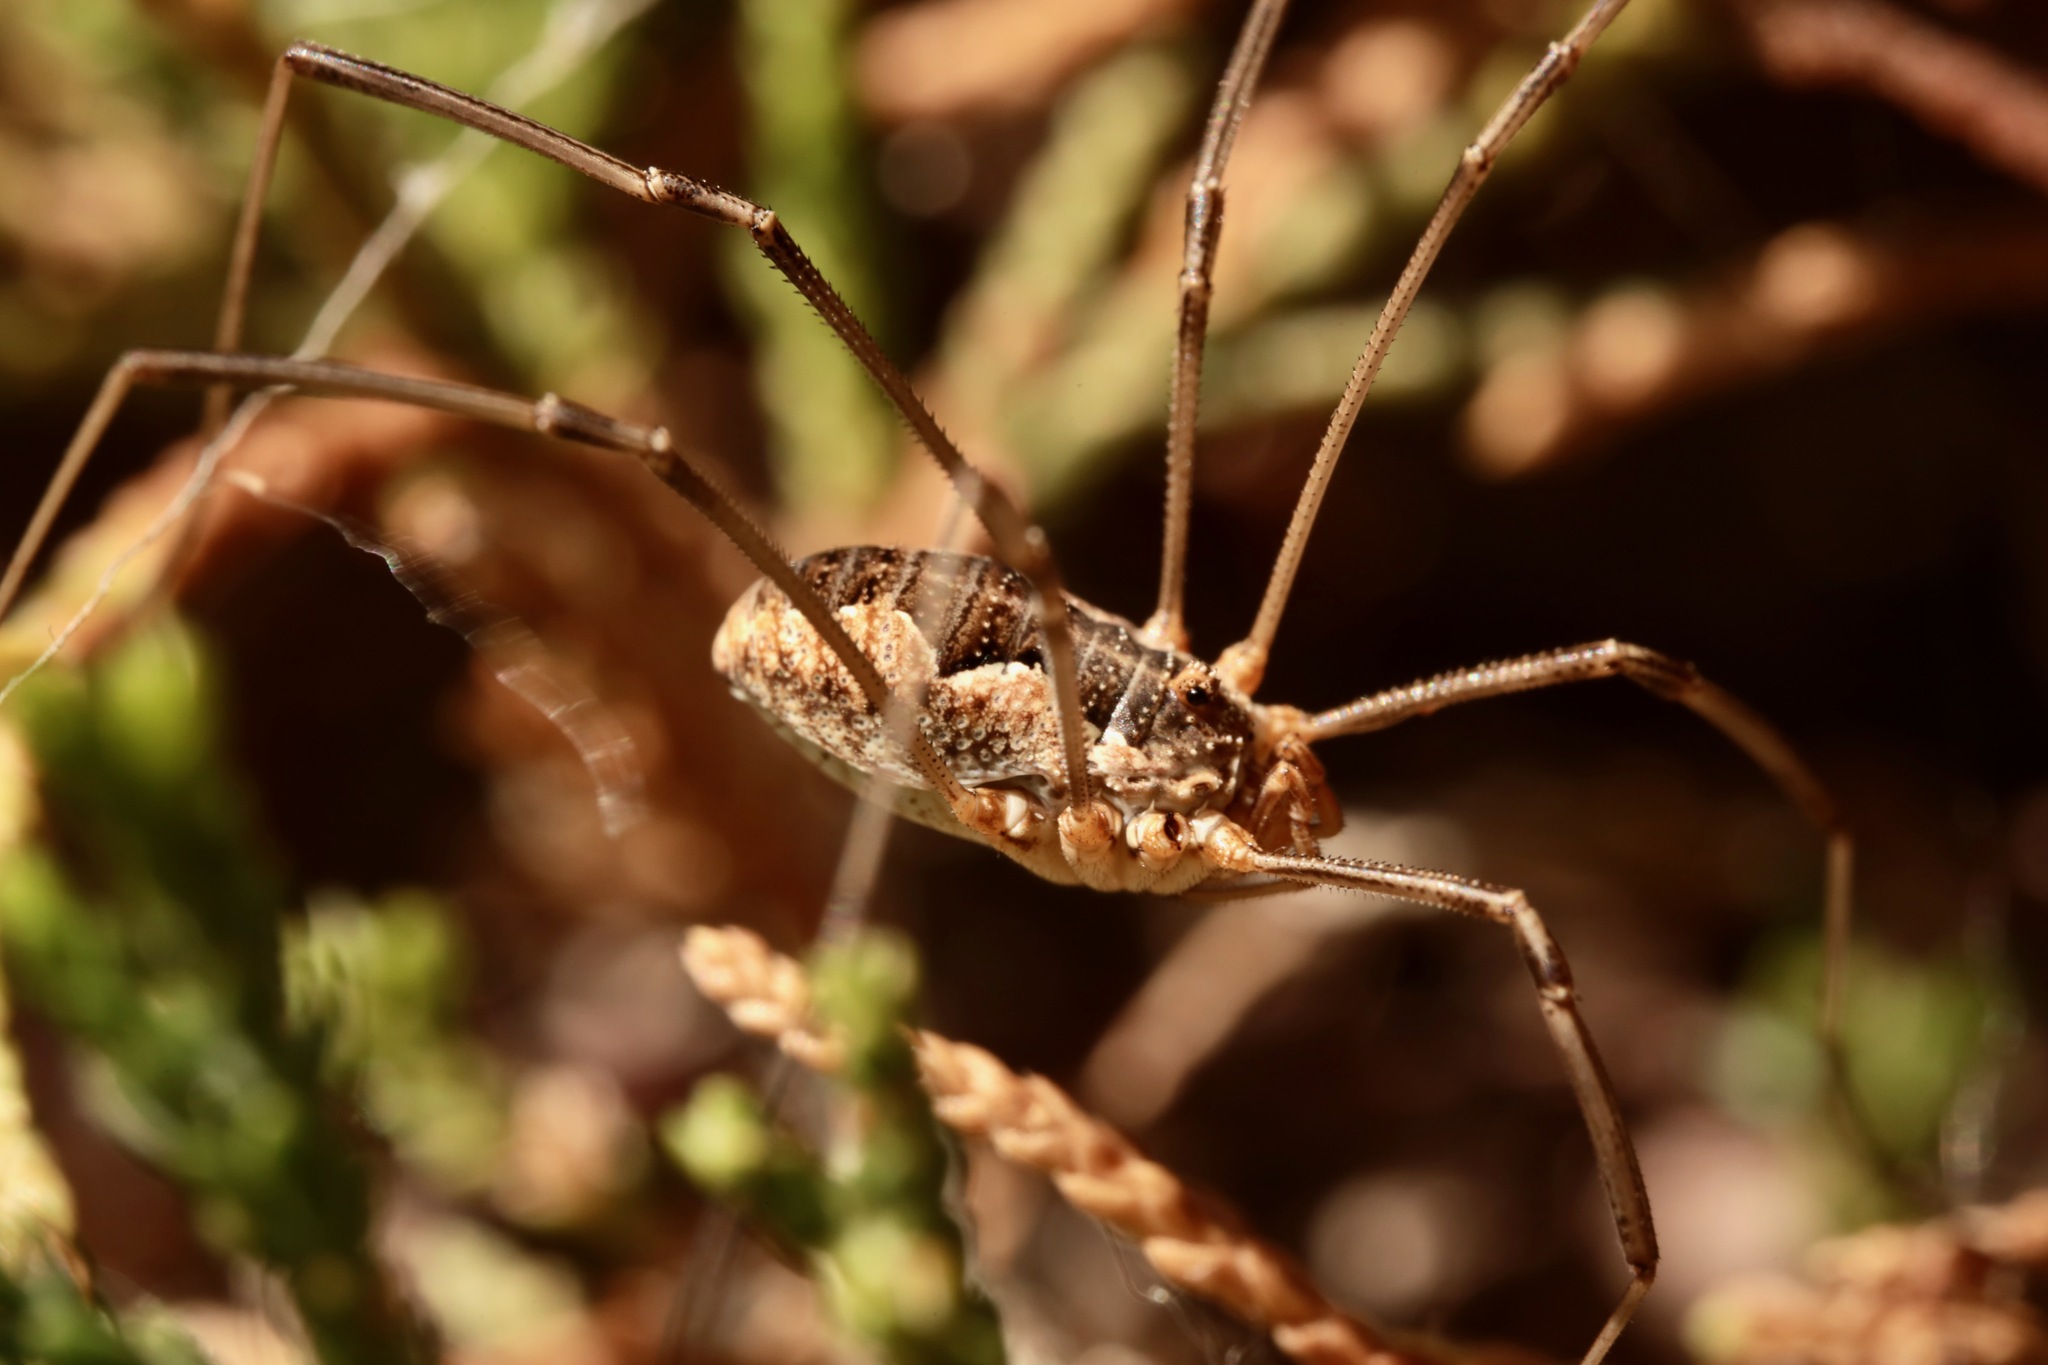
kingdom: Animalia
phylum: Arthropoda
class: Arachnida
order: Opiliones
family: Phalangiidae
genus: Phalangium
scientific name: Phalangium opilio
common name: Daddy longleg
